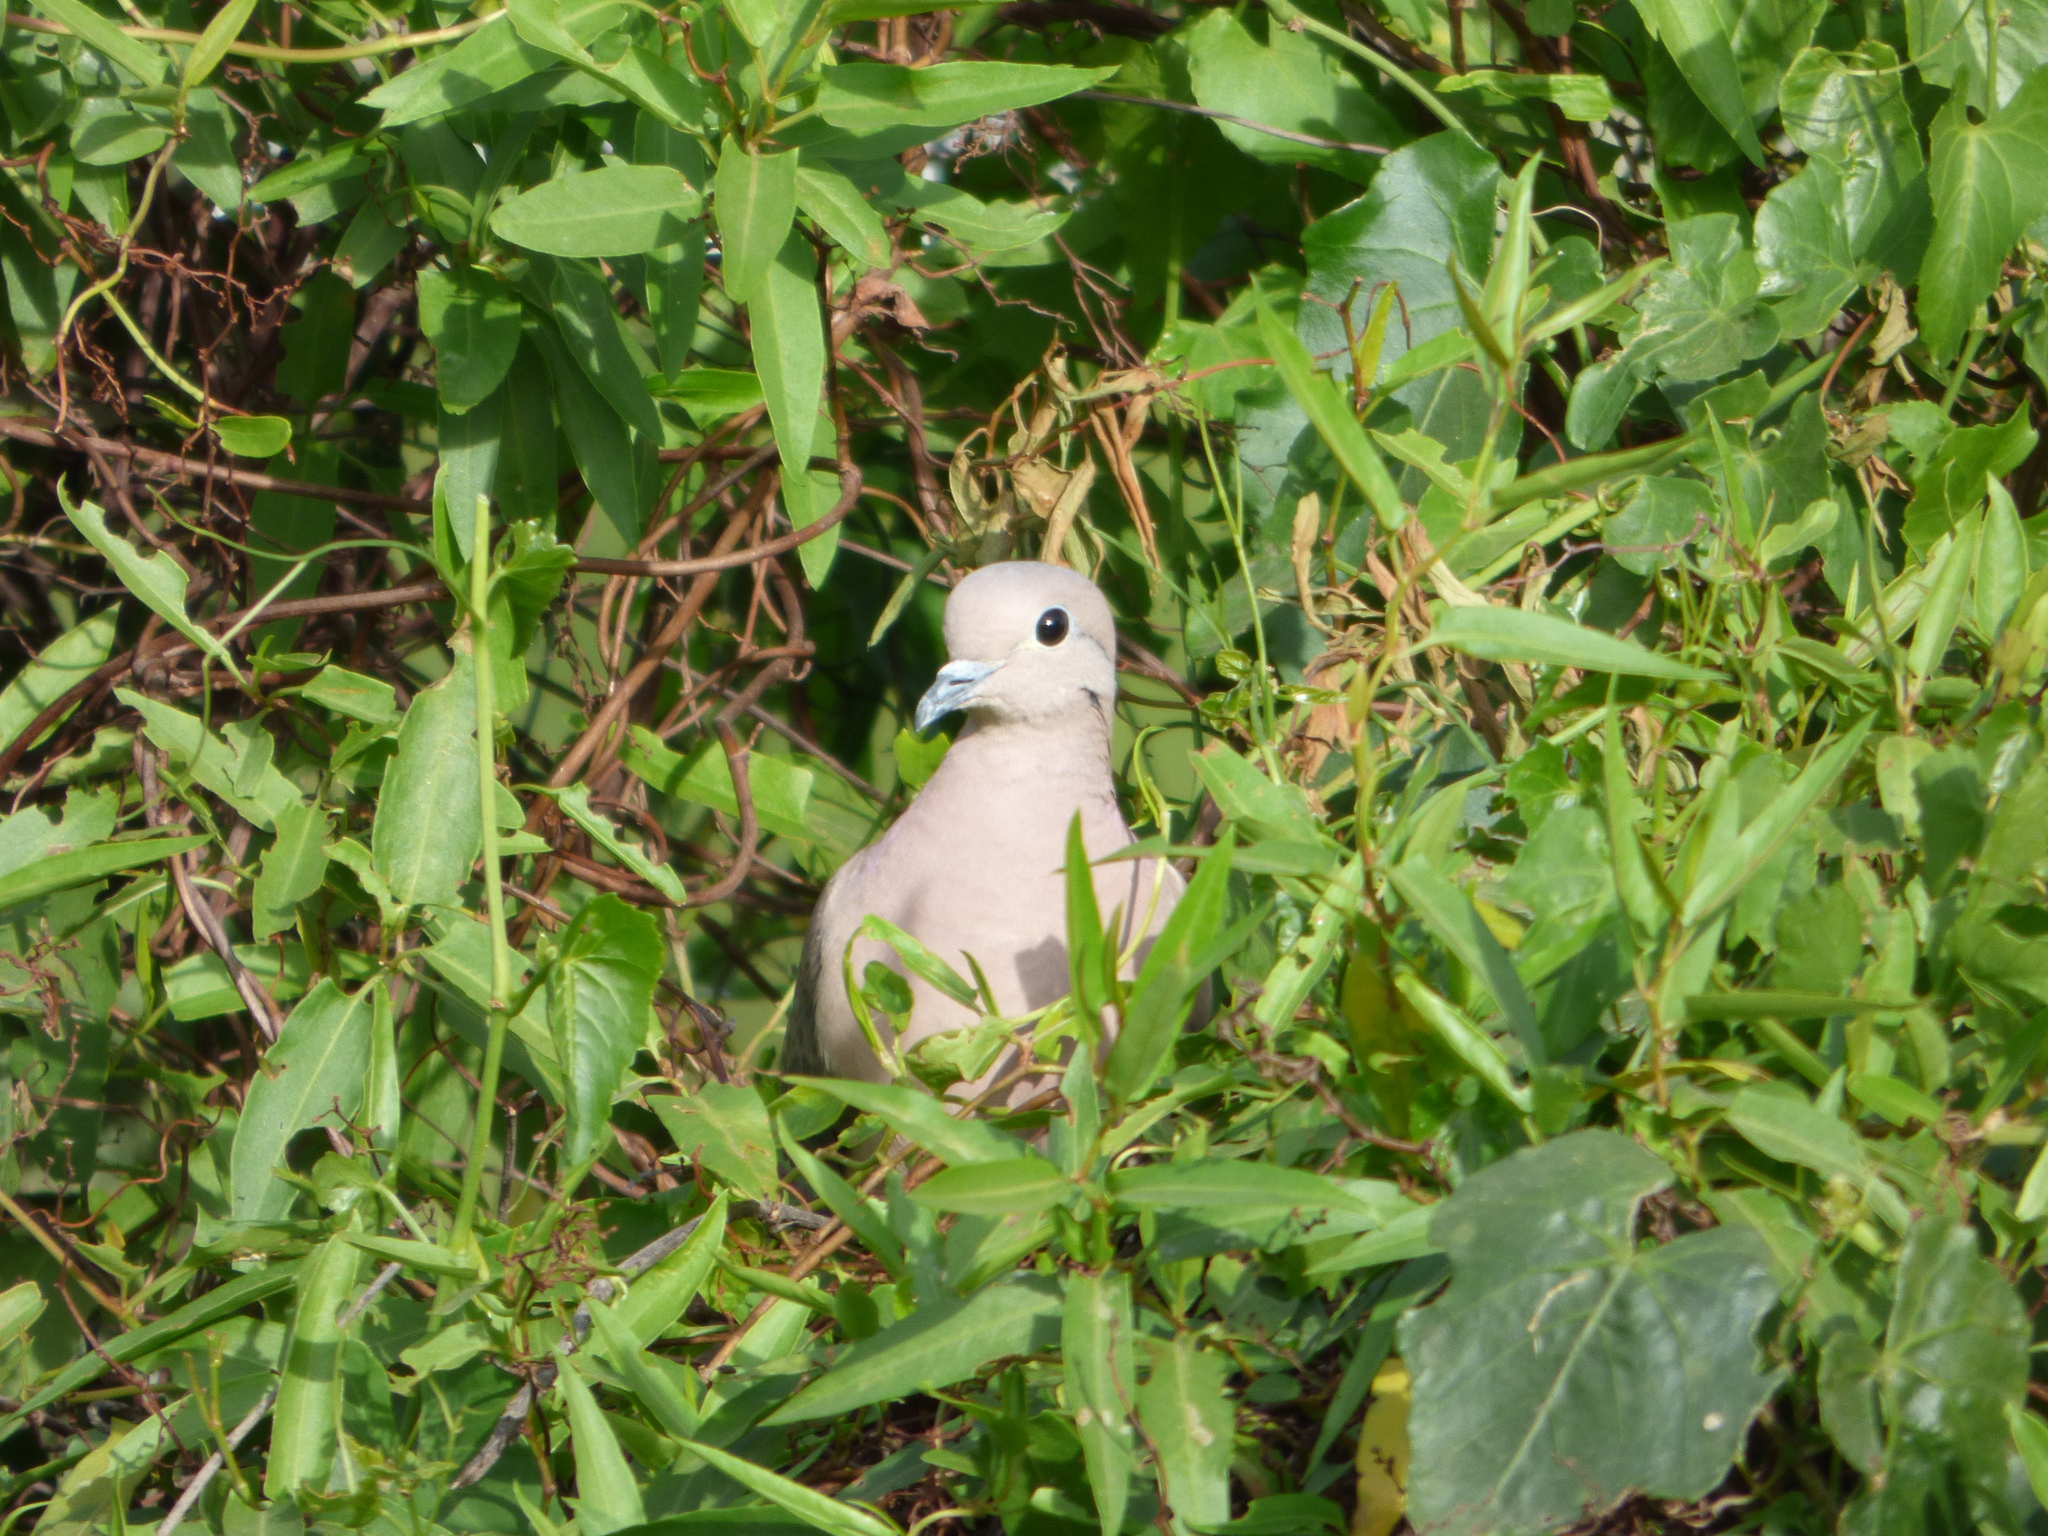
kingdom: Animalia
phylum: Chordata
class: Aves
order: Columbiformes
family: Columbidae
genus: Zenaida
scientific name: Zenaida auriculata
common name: Eared dove
